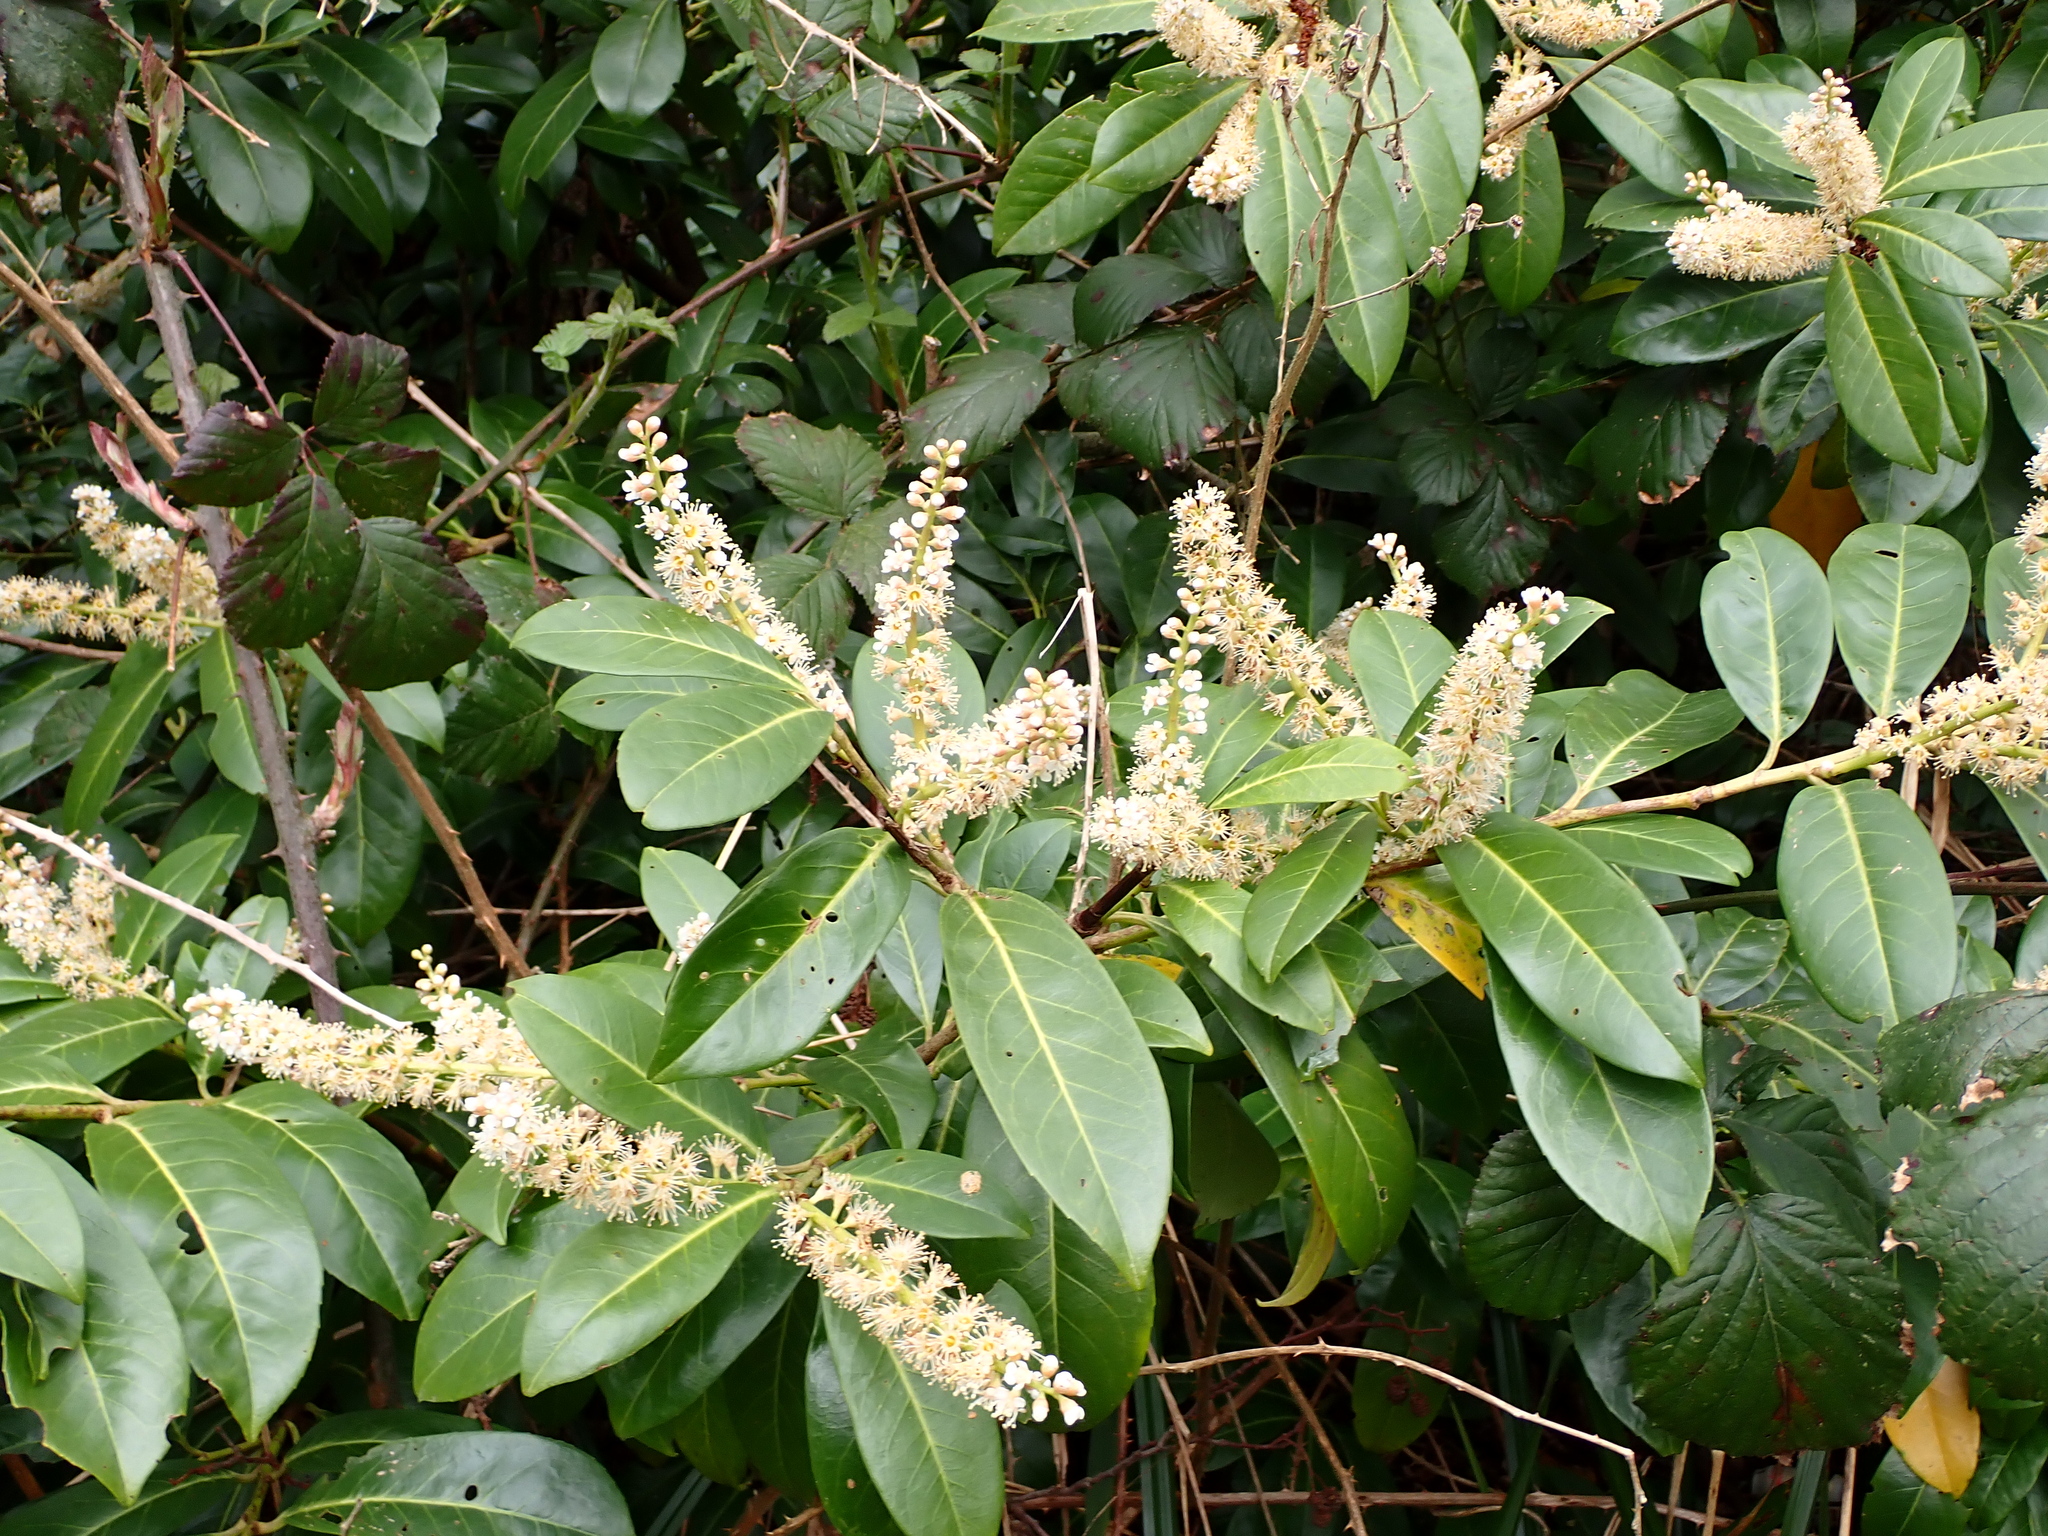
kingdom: Plantae
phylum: Tracheophyta
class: Magnoliopsida
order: Rosales
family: Rosaceae
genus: Prunus
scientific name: Prunus laurocerasus
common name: Cherry laurel
